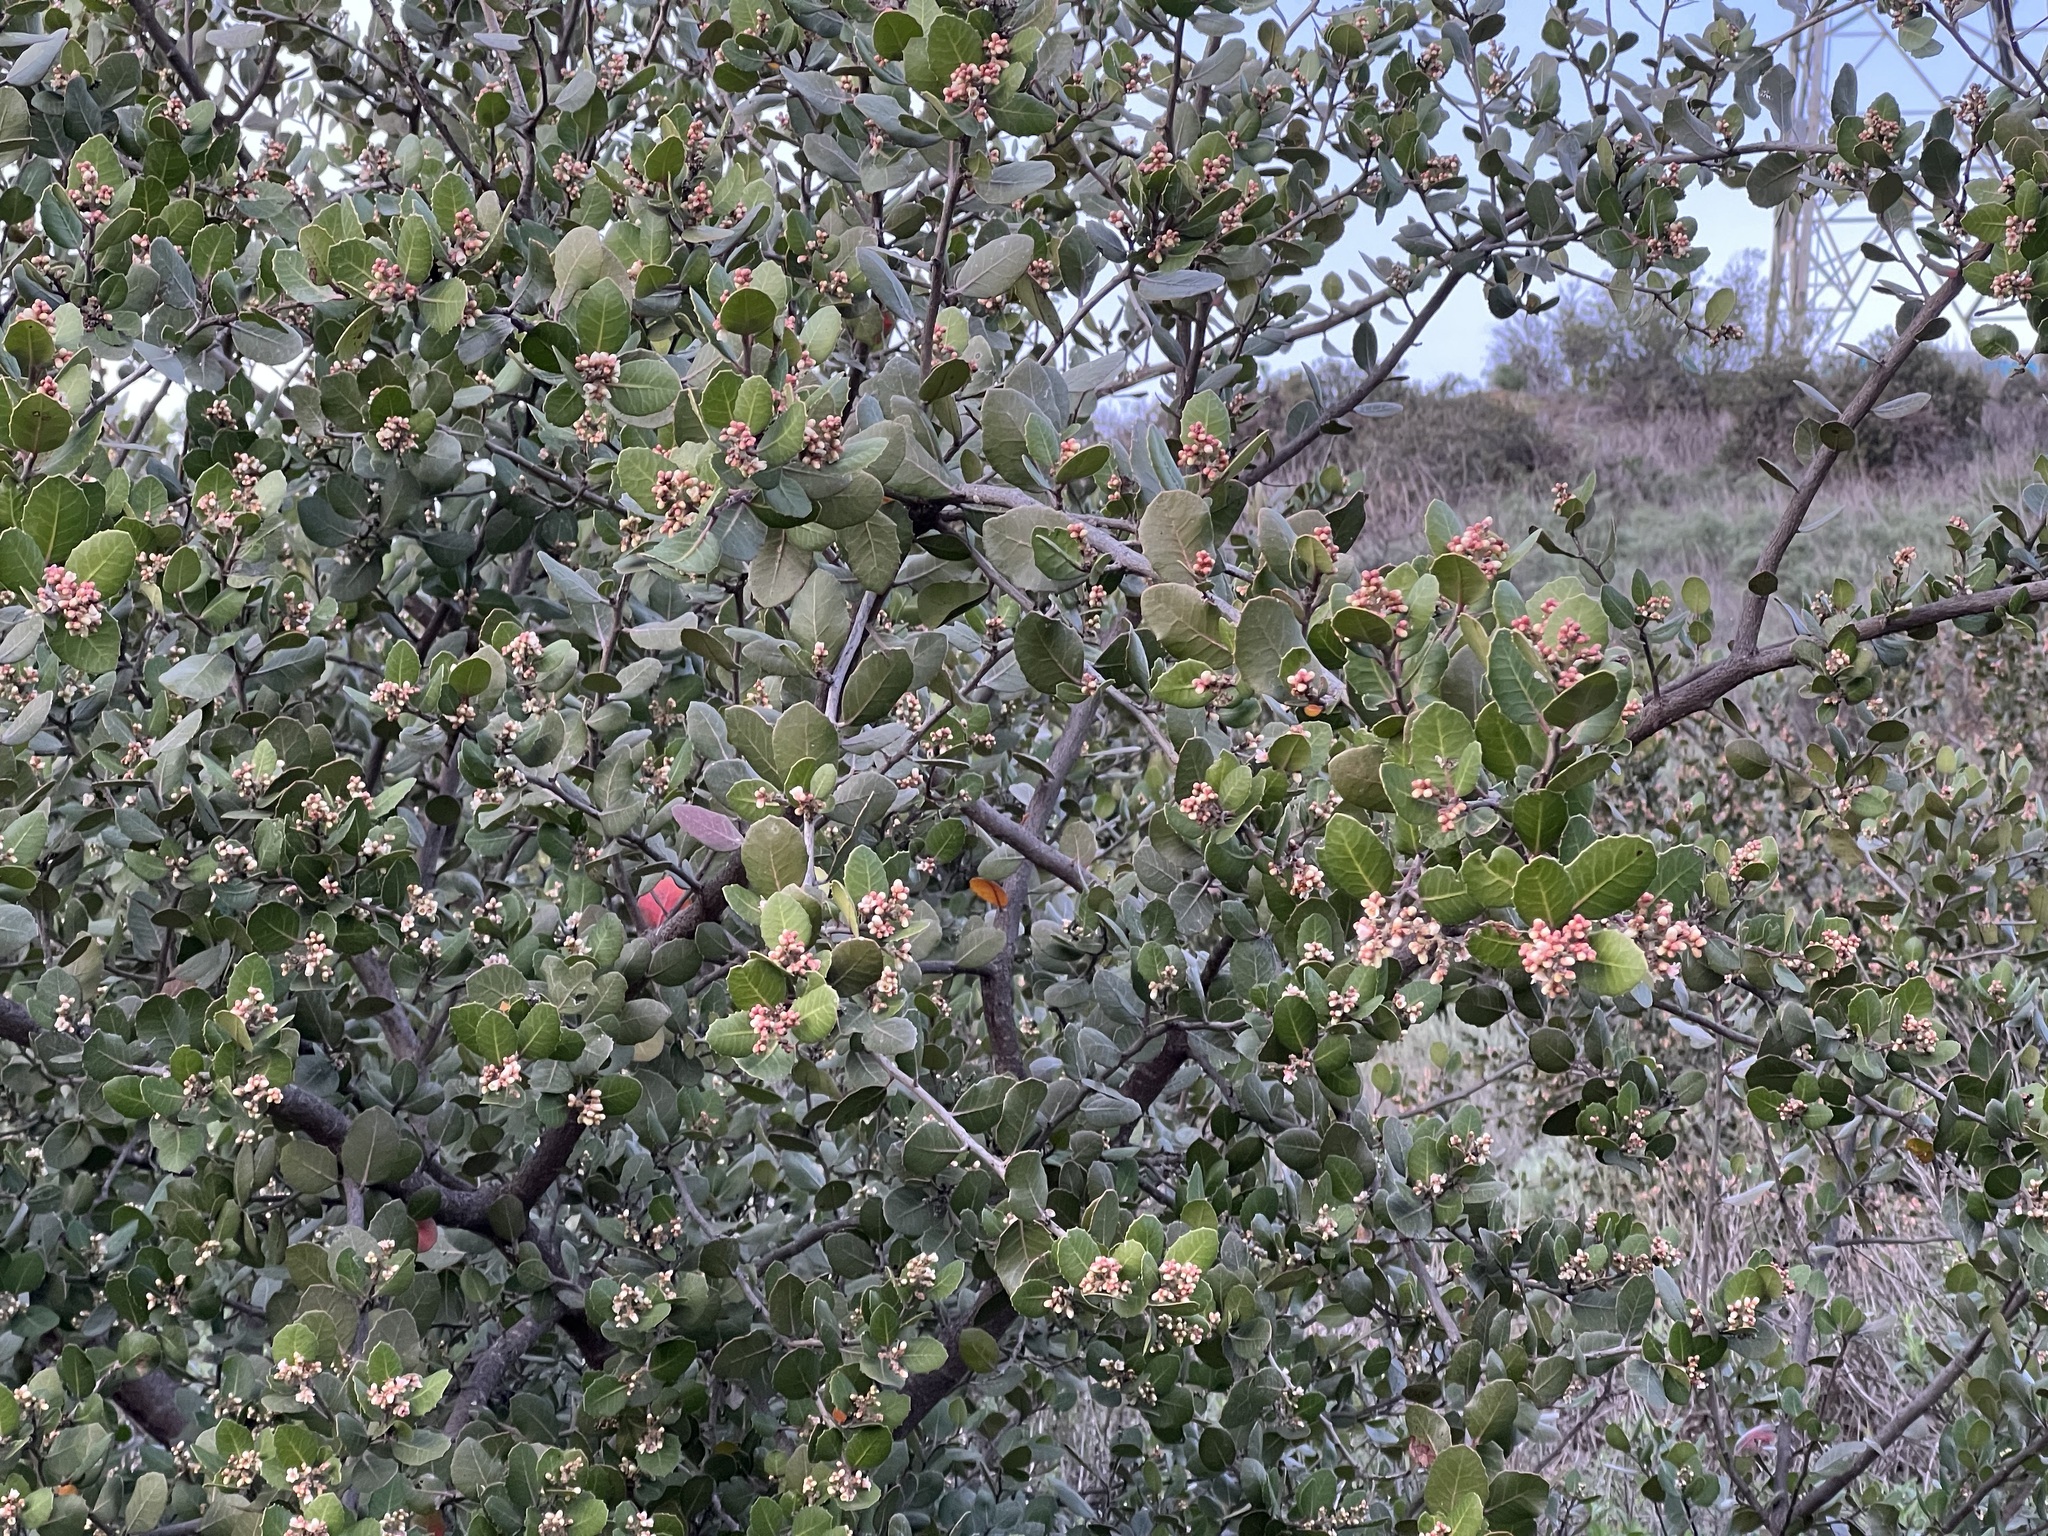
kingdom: Plantae
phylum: Tracheophyta
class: Magnoliopsida
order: Sapindales
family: Anacardiaceae
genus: Rhus
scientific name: Rhus integrifolia
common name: Lemonade sumac
